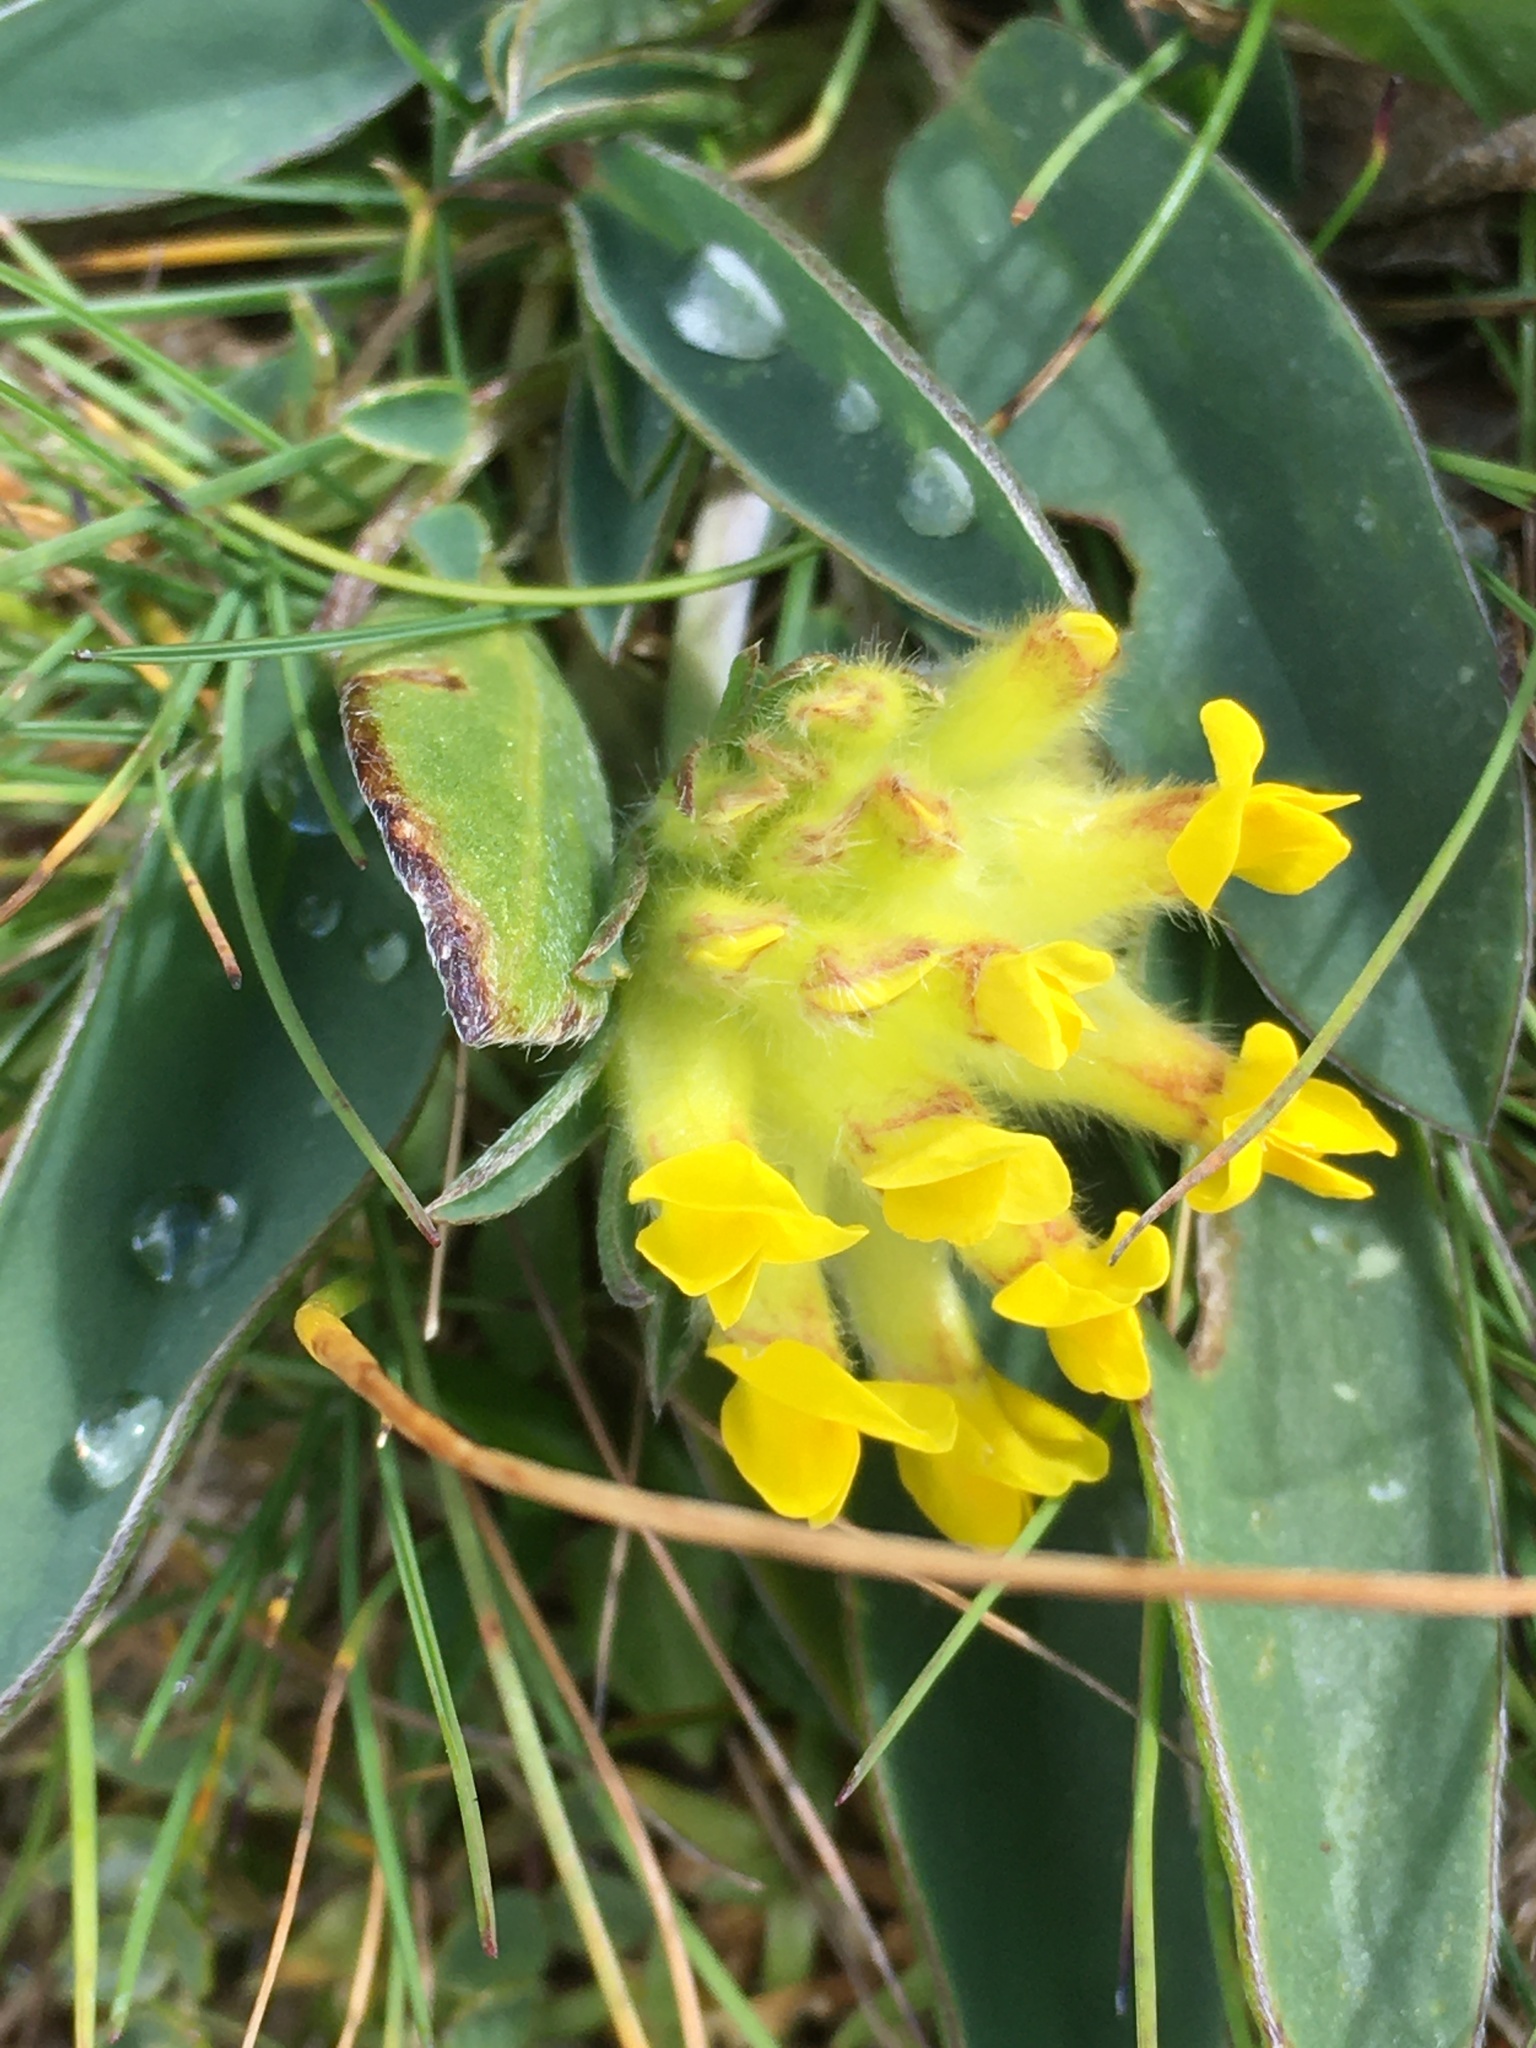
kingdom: Plantae
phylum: Tracheophyta
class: Magnoliopsida
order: Fabales
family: Fabaceae
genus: Anthyllis
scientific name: Anthyllis vulneraria
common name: Kidney vetch
